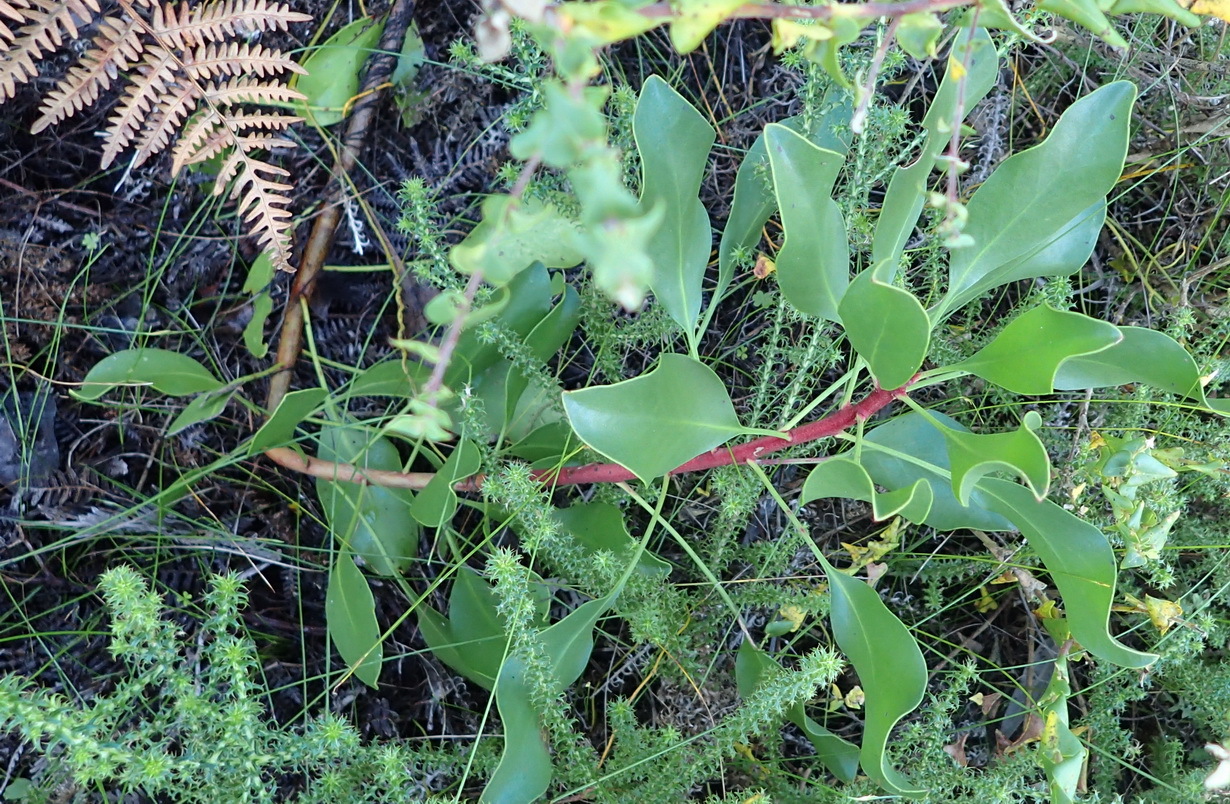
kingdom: Plantae
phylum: Tracheophyta
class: Magnoliopsida
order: Proteales
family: Proteaceae
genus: Protea
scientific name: Protea cynaroides
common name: King protea
